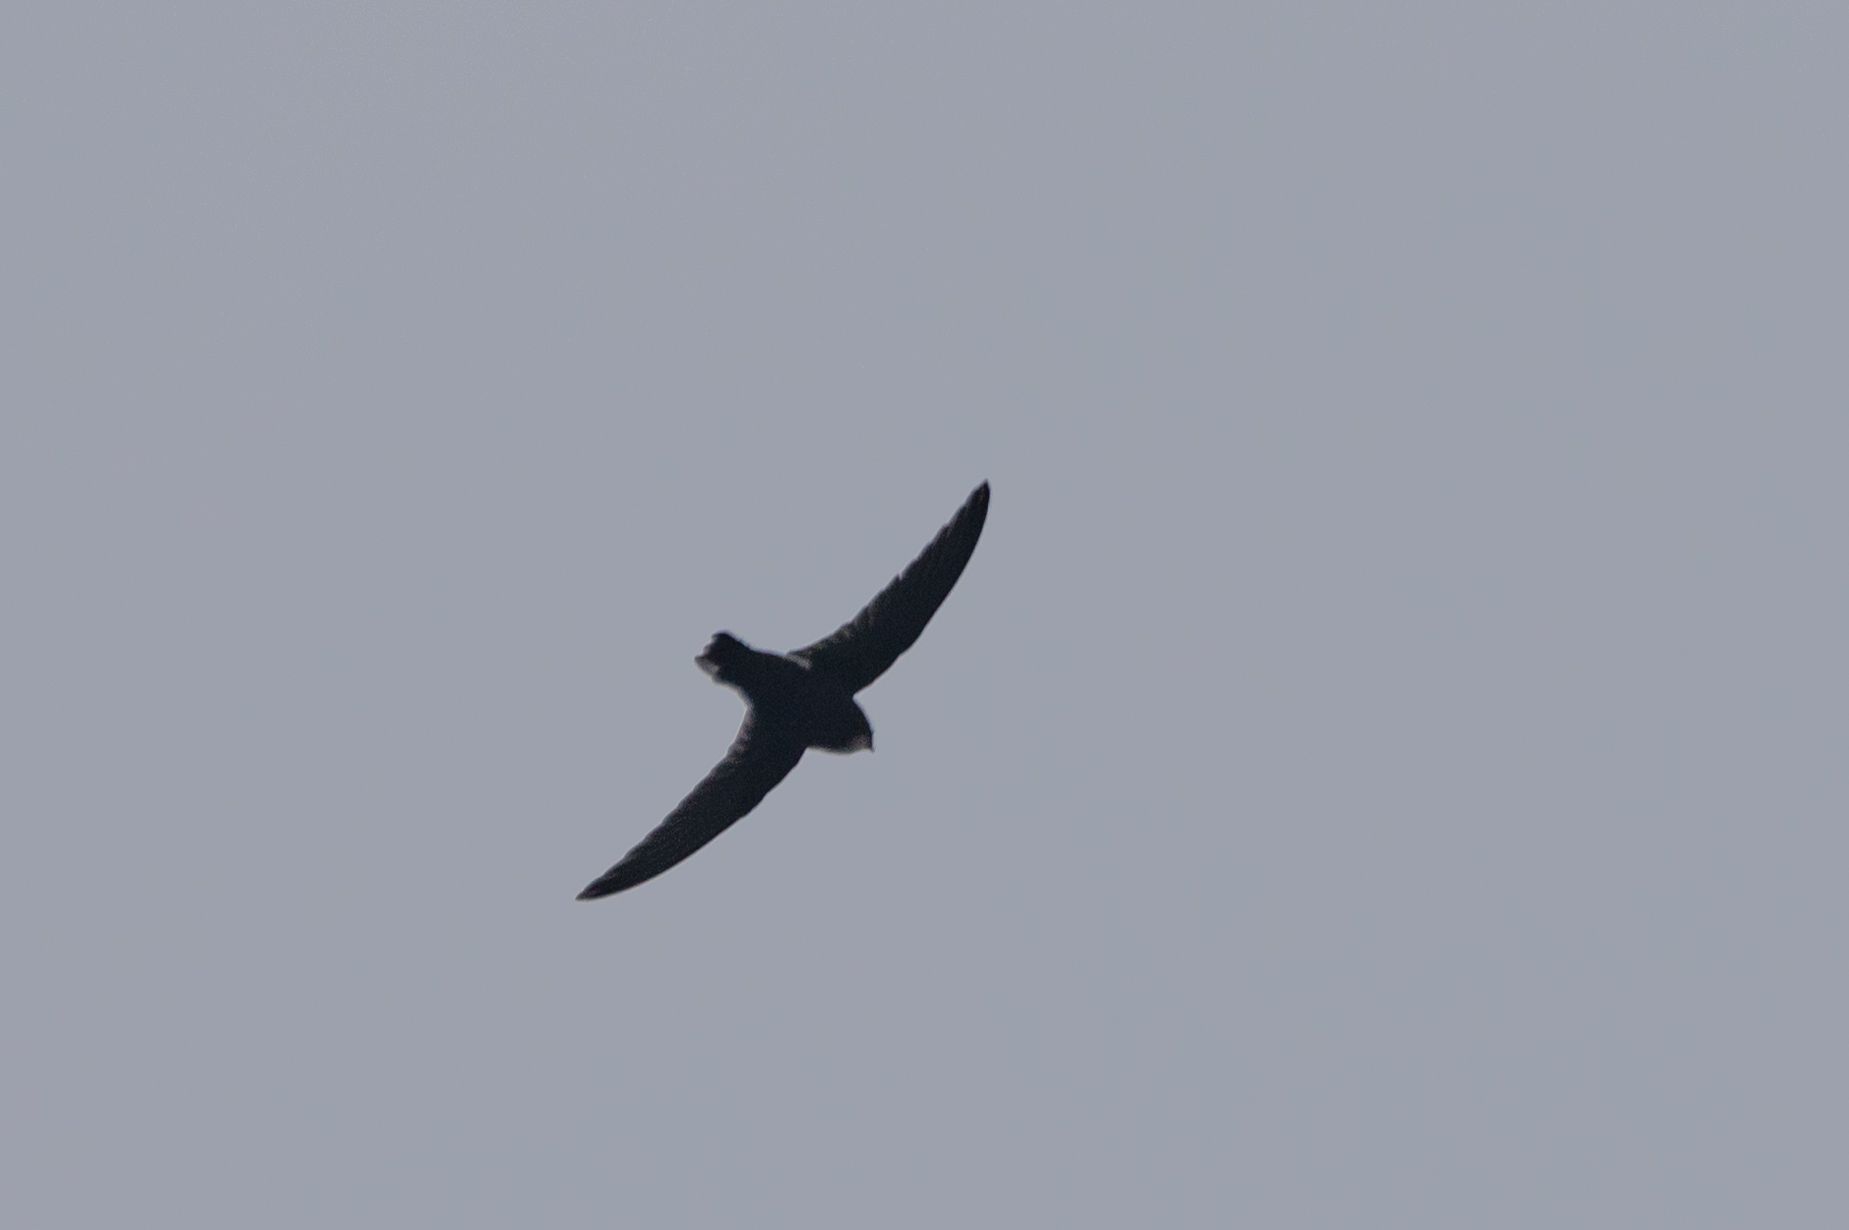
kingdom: Animalia
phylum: Chordata
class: Aves
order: Apodiformes
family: Apodidae
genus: Apus
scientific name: Apus nipalensis
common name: House swift
